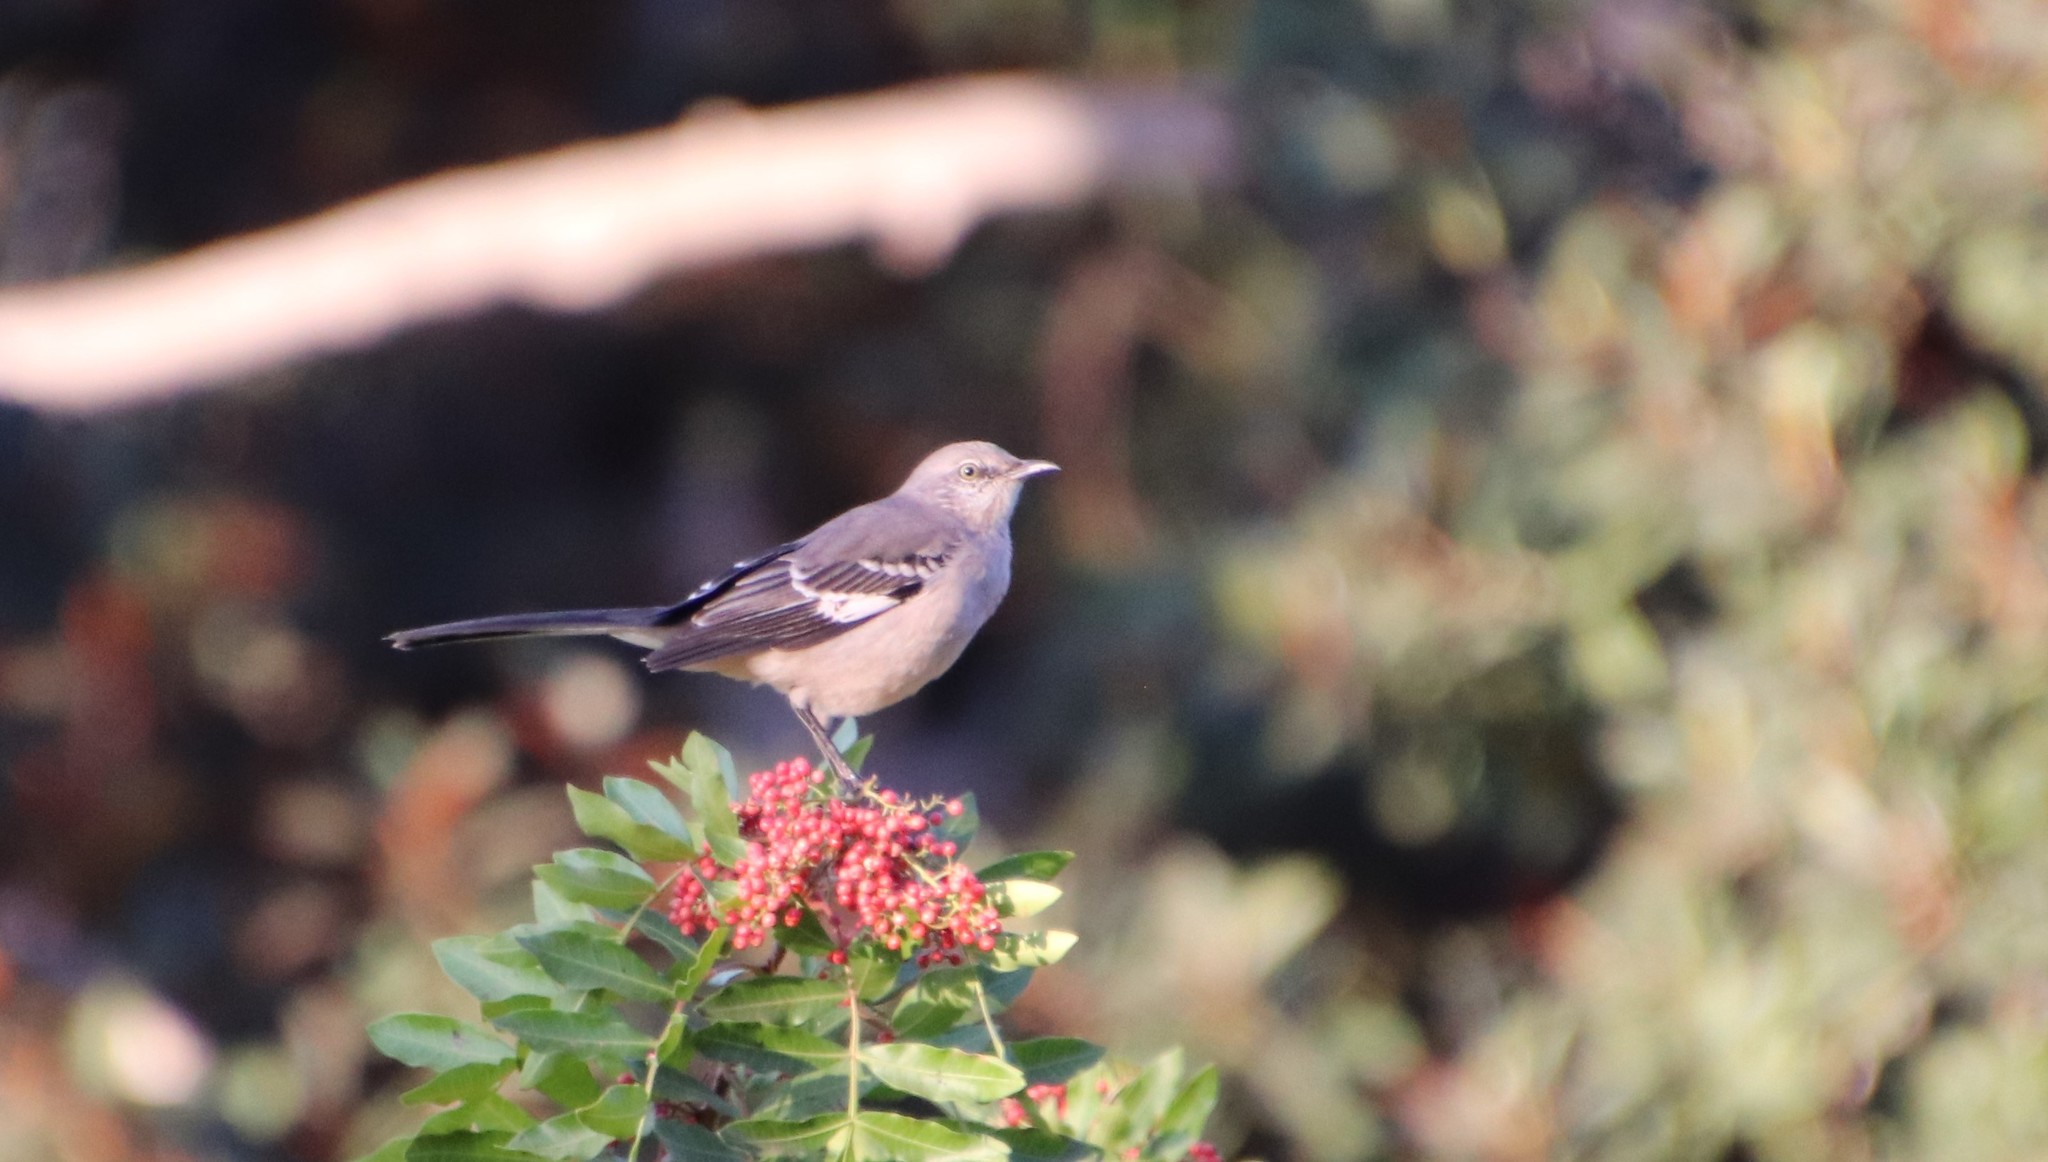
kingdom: Animalia
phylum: Chordata
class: Aves
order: Passeriformes
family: Mimidae
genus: Mimus
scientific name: Mimus polyglottos
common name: Northern mockingbird
